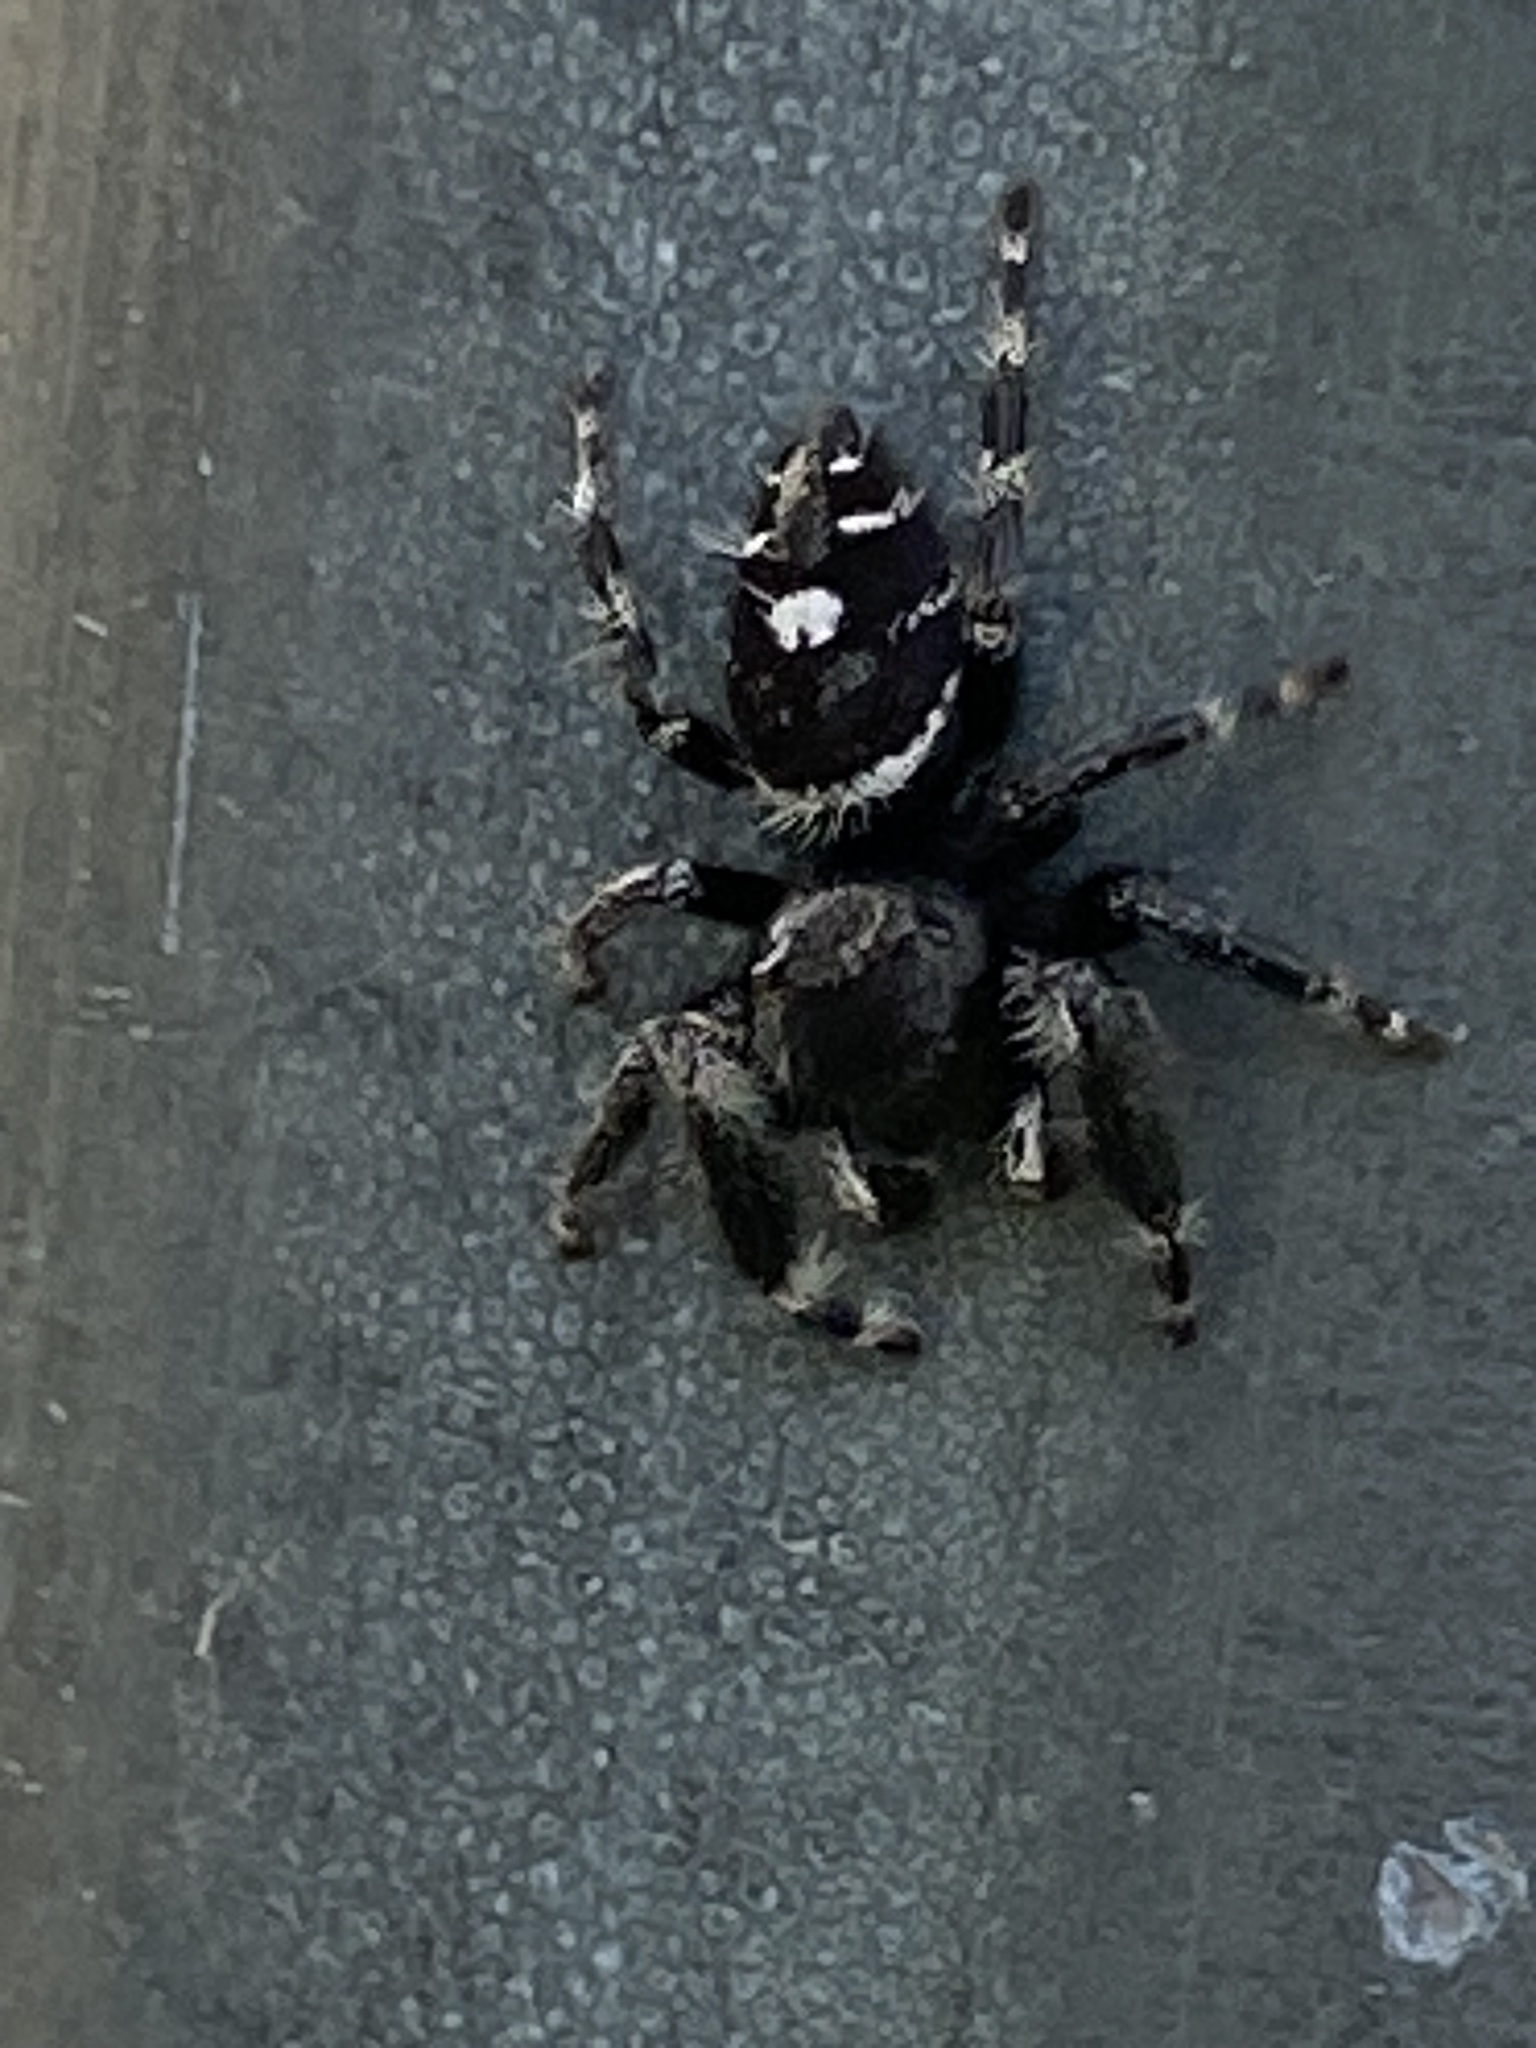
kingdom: Animalia
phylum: Arthropoda
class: Arachnida
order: Araneae
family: Salticidae
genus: Phidippus
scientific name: Phidippus audax
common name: Bold jumper
